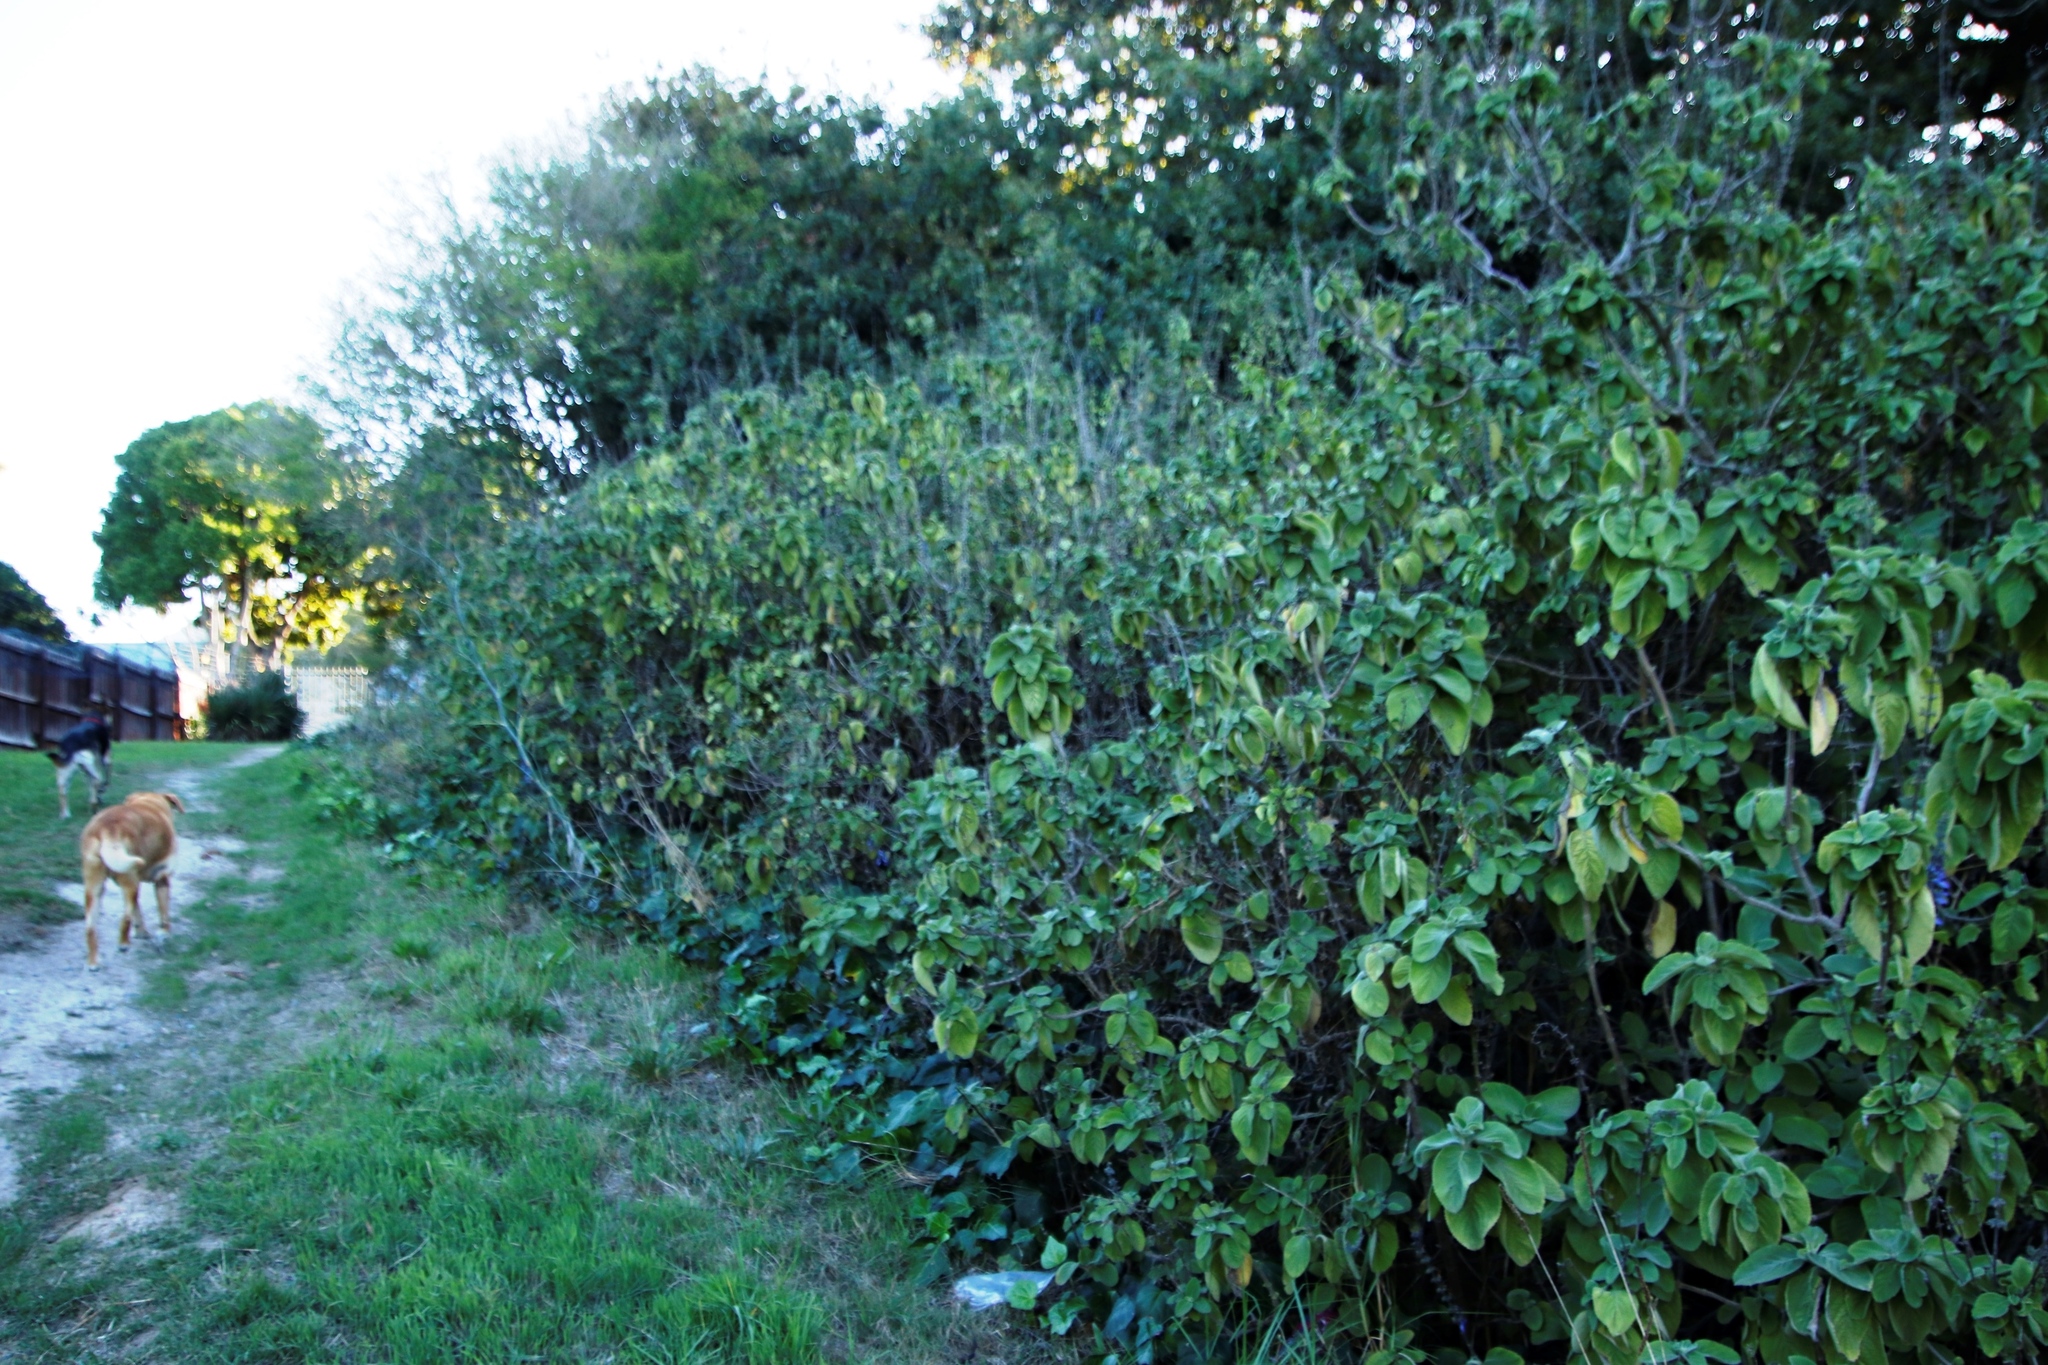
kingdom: Plantae
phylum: Tracheophyta
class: Magnoliopsida
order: Lamiales
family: Lamiaceae
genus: Coleus
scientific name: Coleus barbatus
